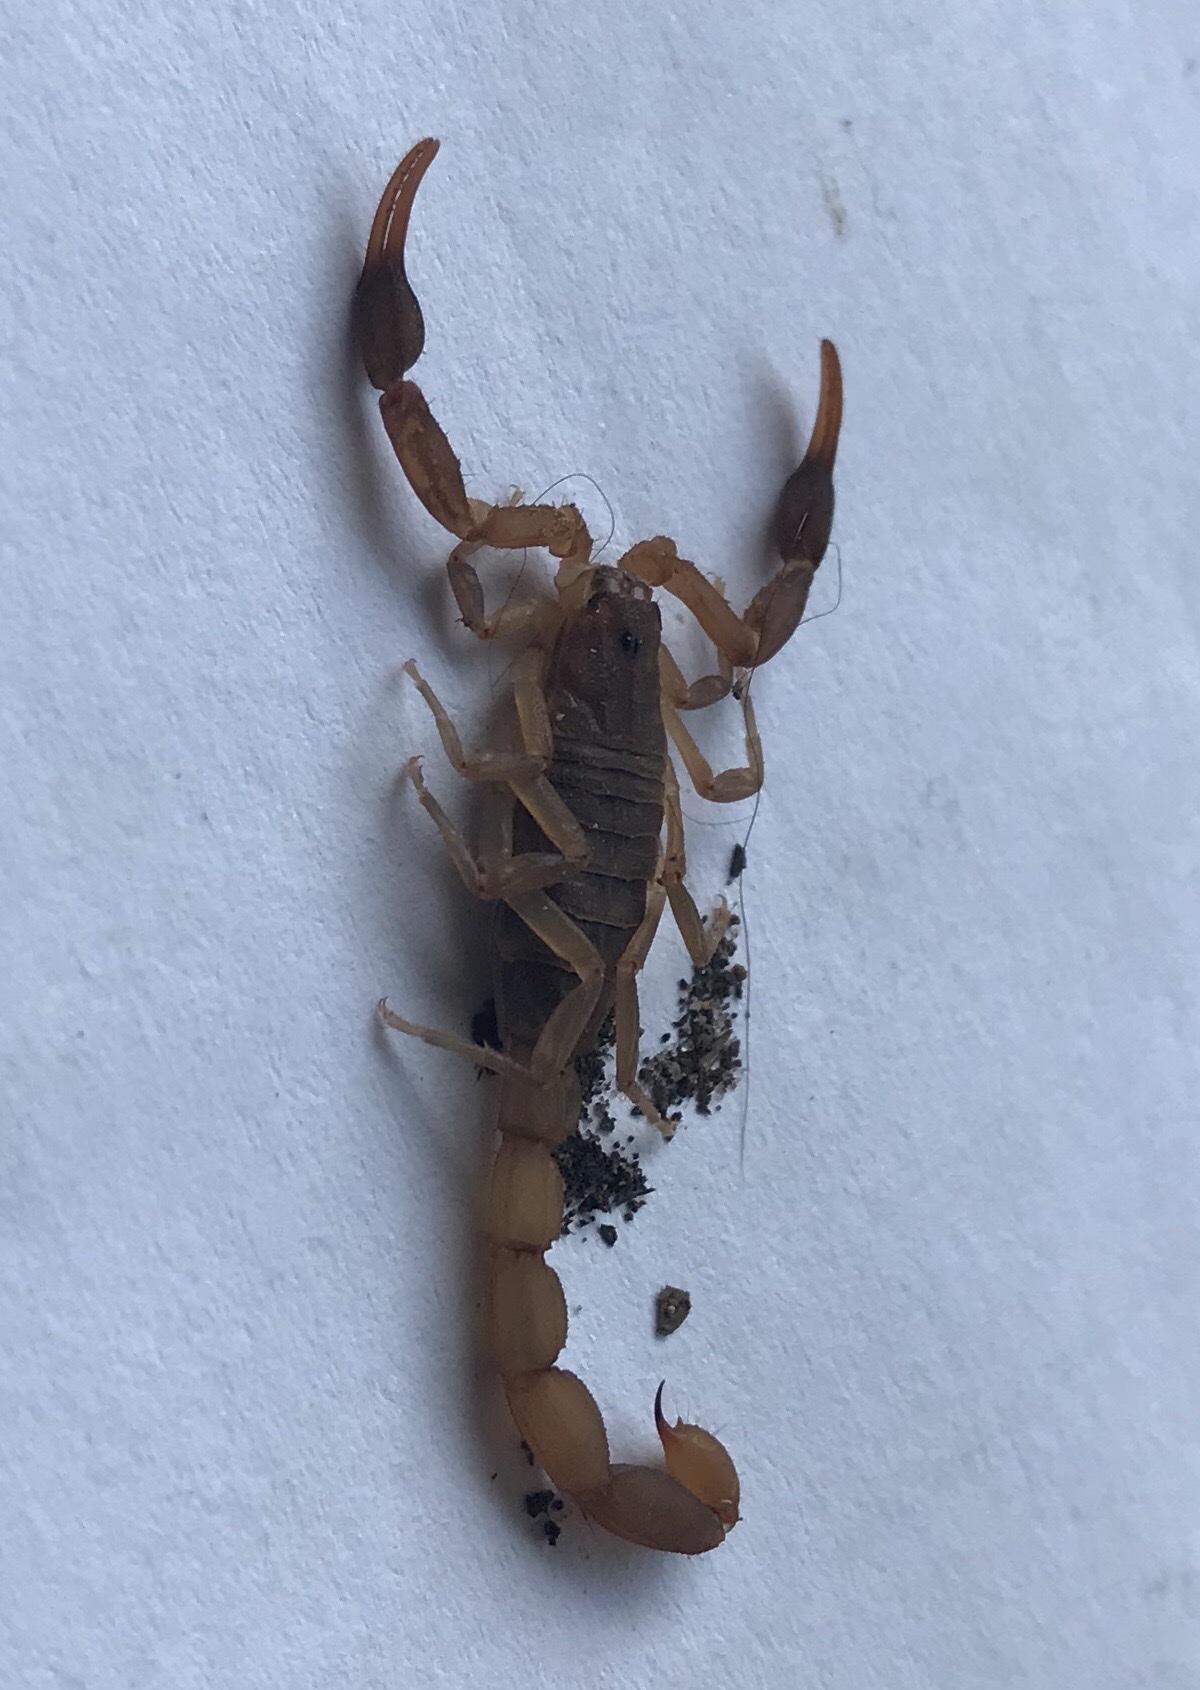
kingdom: Animalia
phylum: Arthropoda
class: Arachnida
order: Scorpiones
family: Buthidae
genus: Pseudolychas
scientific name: Pseudolychas ochraceus
